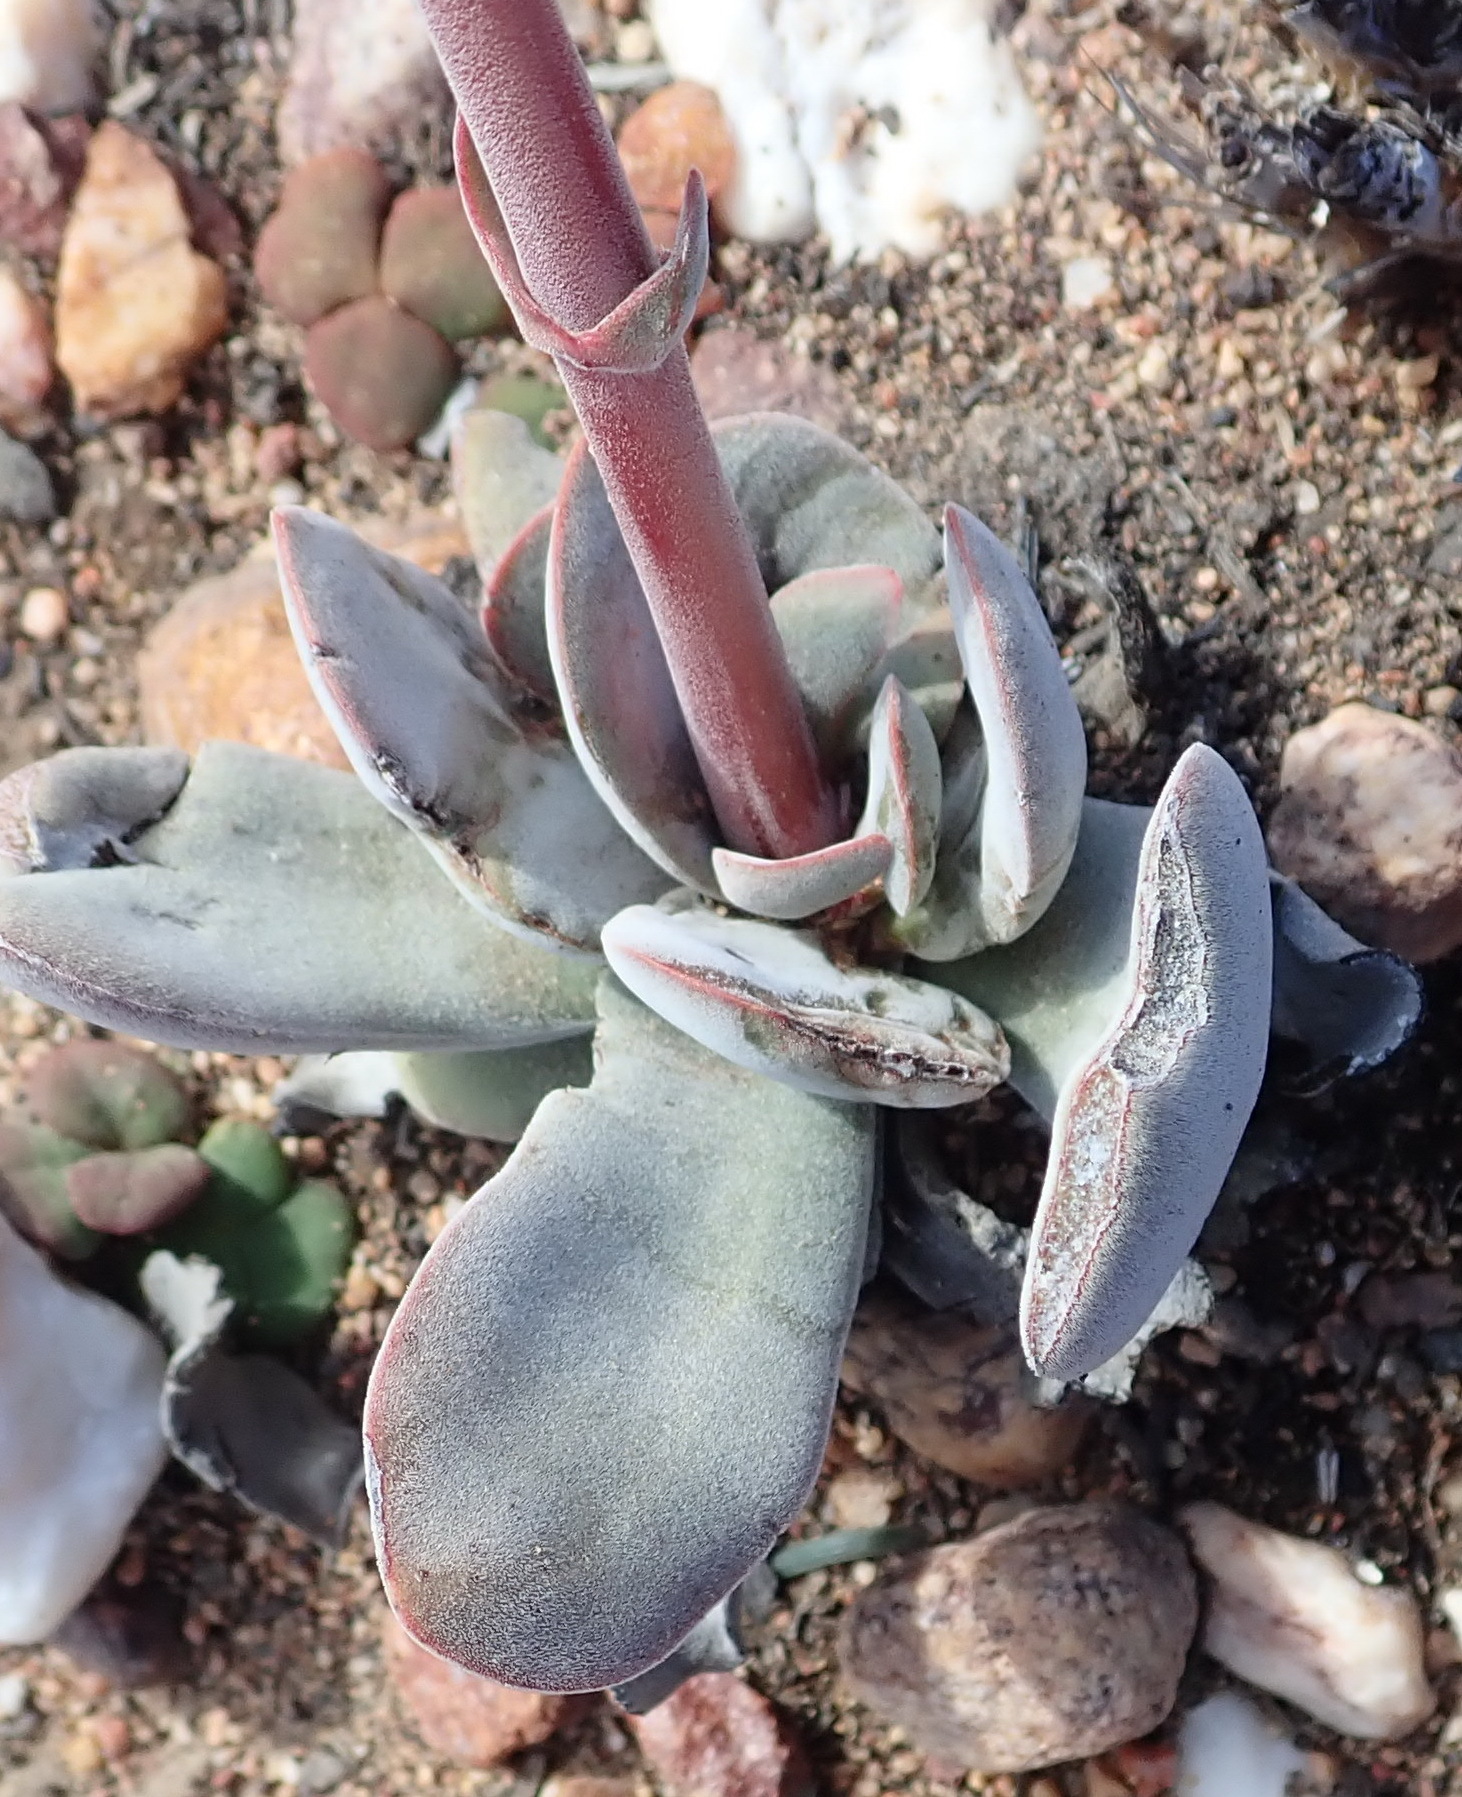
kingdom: Plantae
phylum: Tracheophyta
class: Magnoliopsida
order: Saxifragales
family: Crassulaceae
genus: Crassula
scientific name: Crassula cotyledonis
